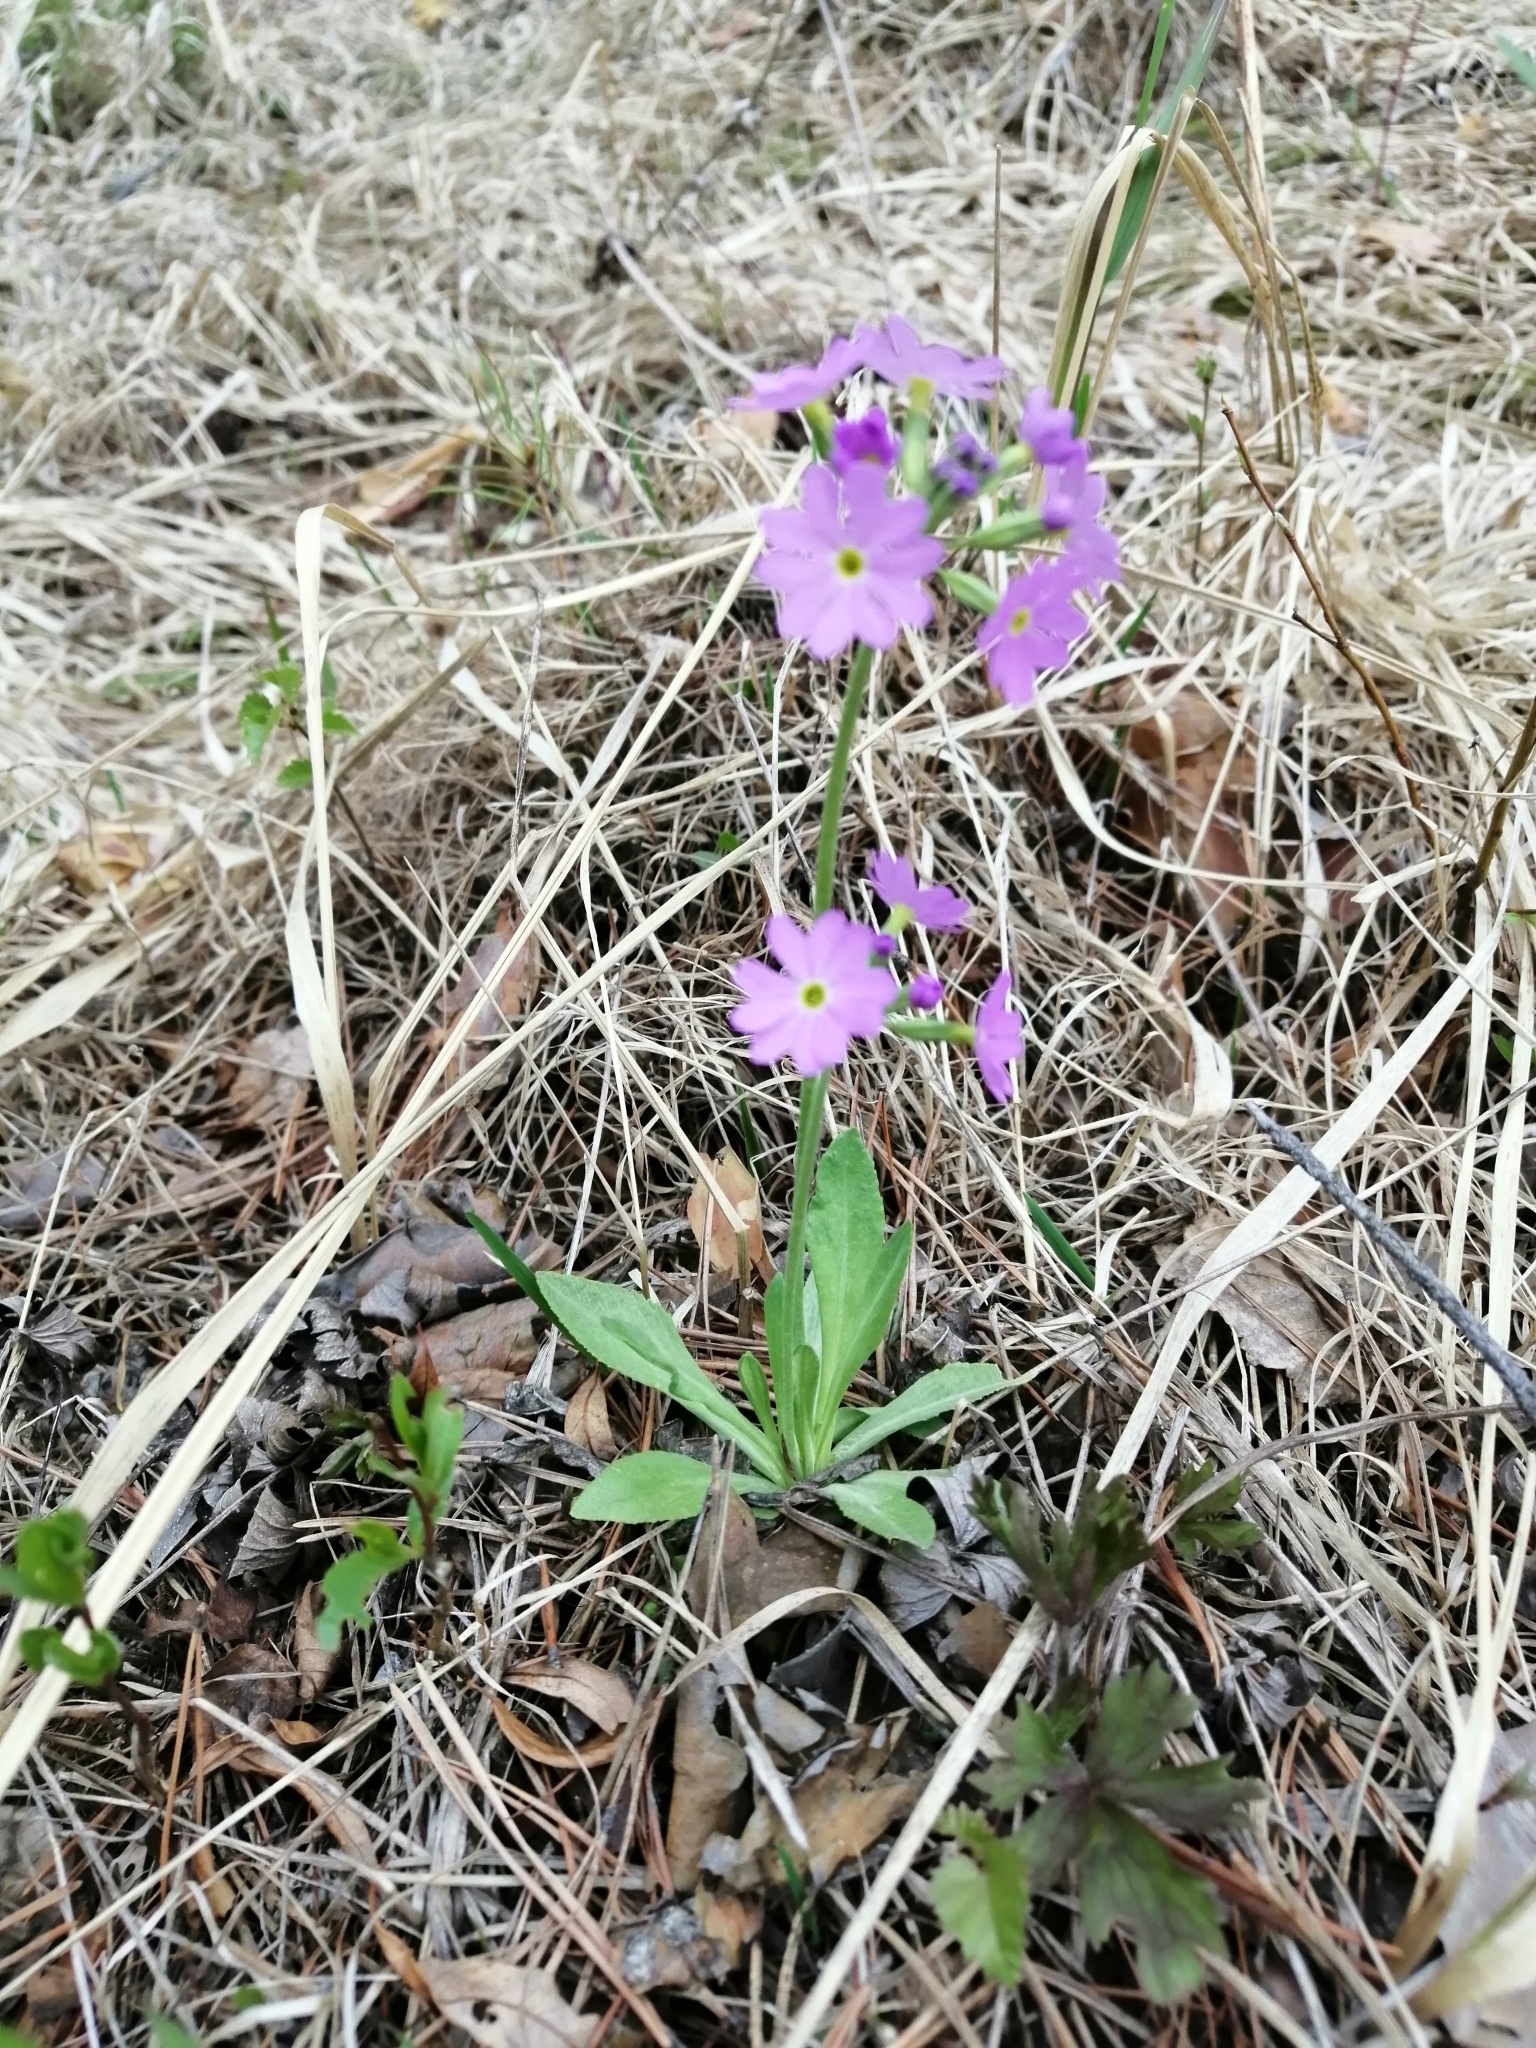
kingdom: Plantae
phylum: Tracheophyta
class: Magnoliopsida
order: Ericales
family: Primulaceae
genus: Primula
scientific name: Primula nutans
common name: Siberian primrose
